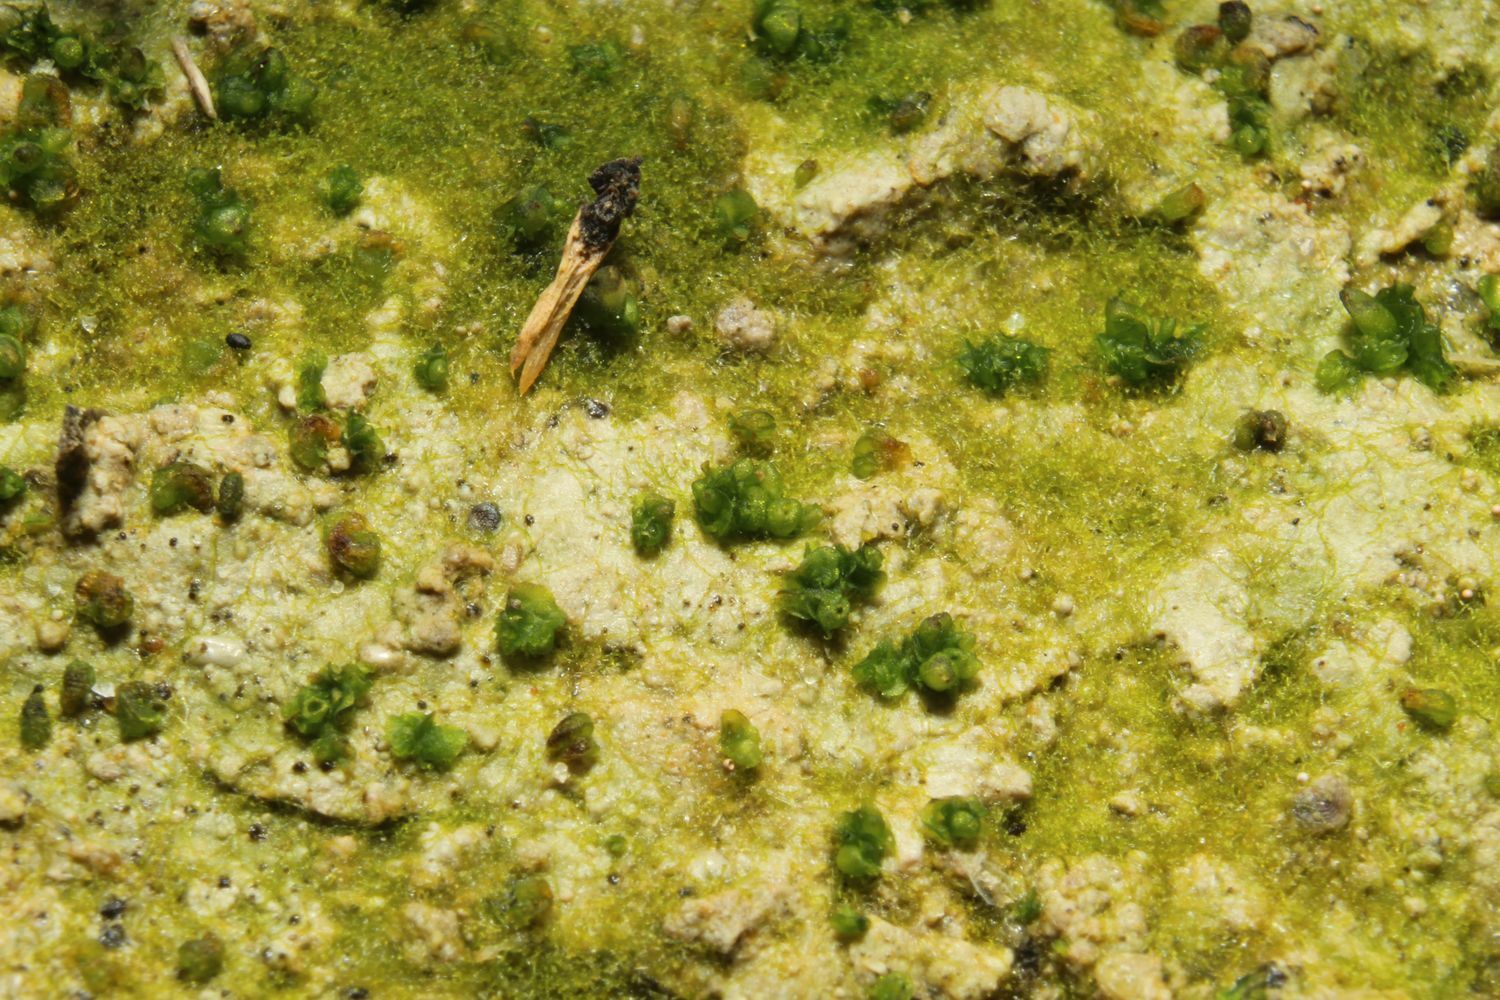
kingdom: Plantae
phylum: Marchantiophyta
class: Marchantiopsida
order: Sphaerocarpales
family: Riellaceae
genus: Austroriella
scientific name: Austroriella salta
